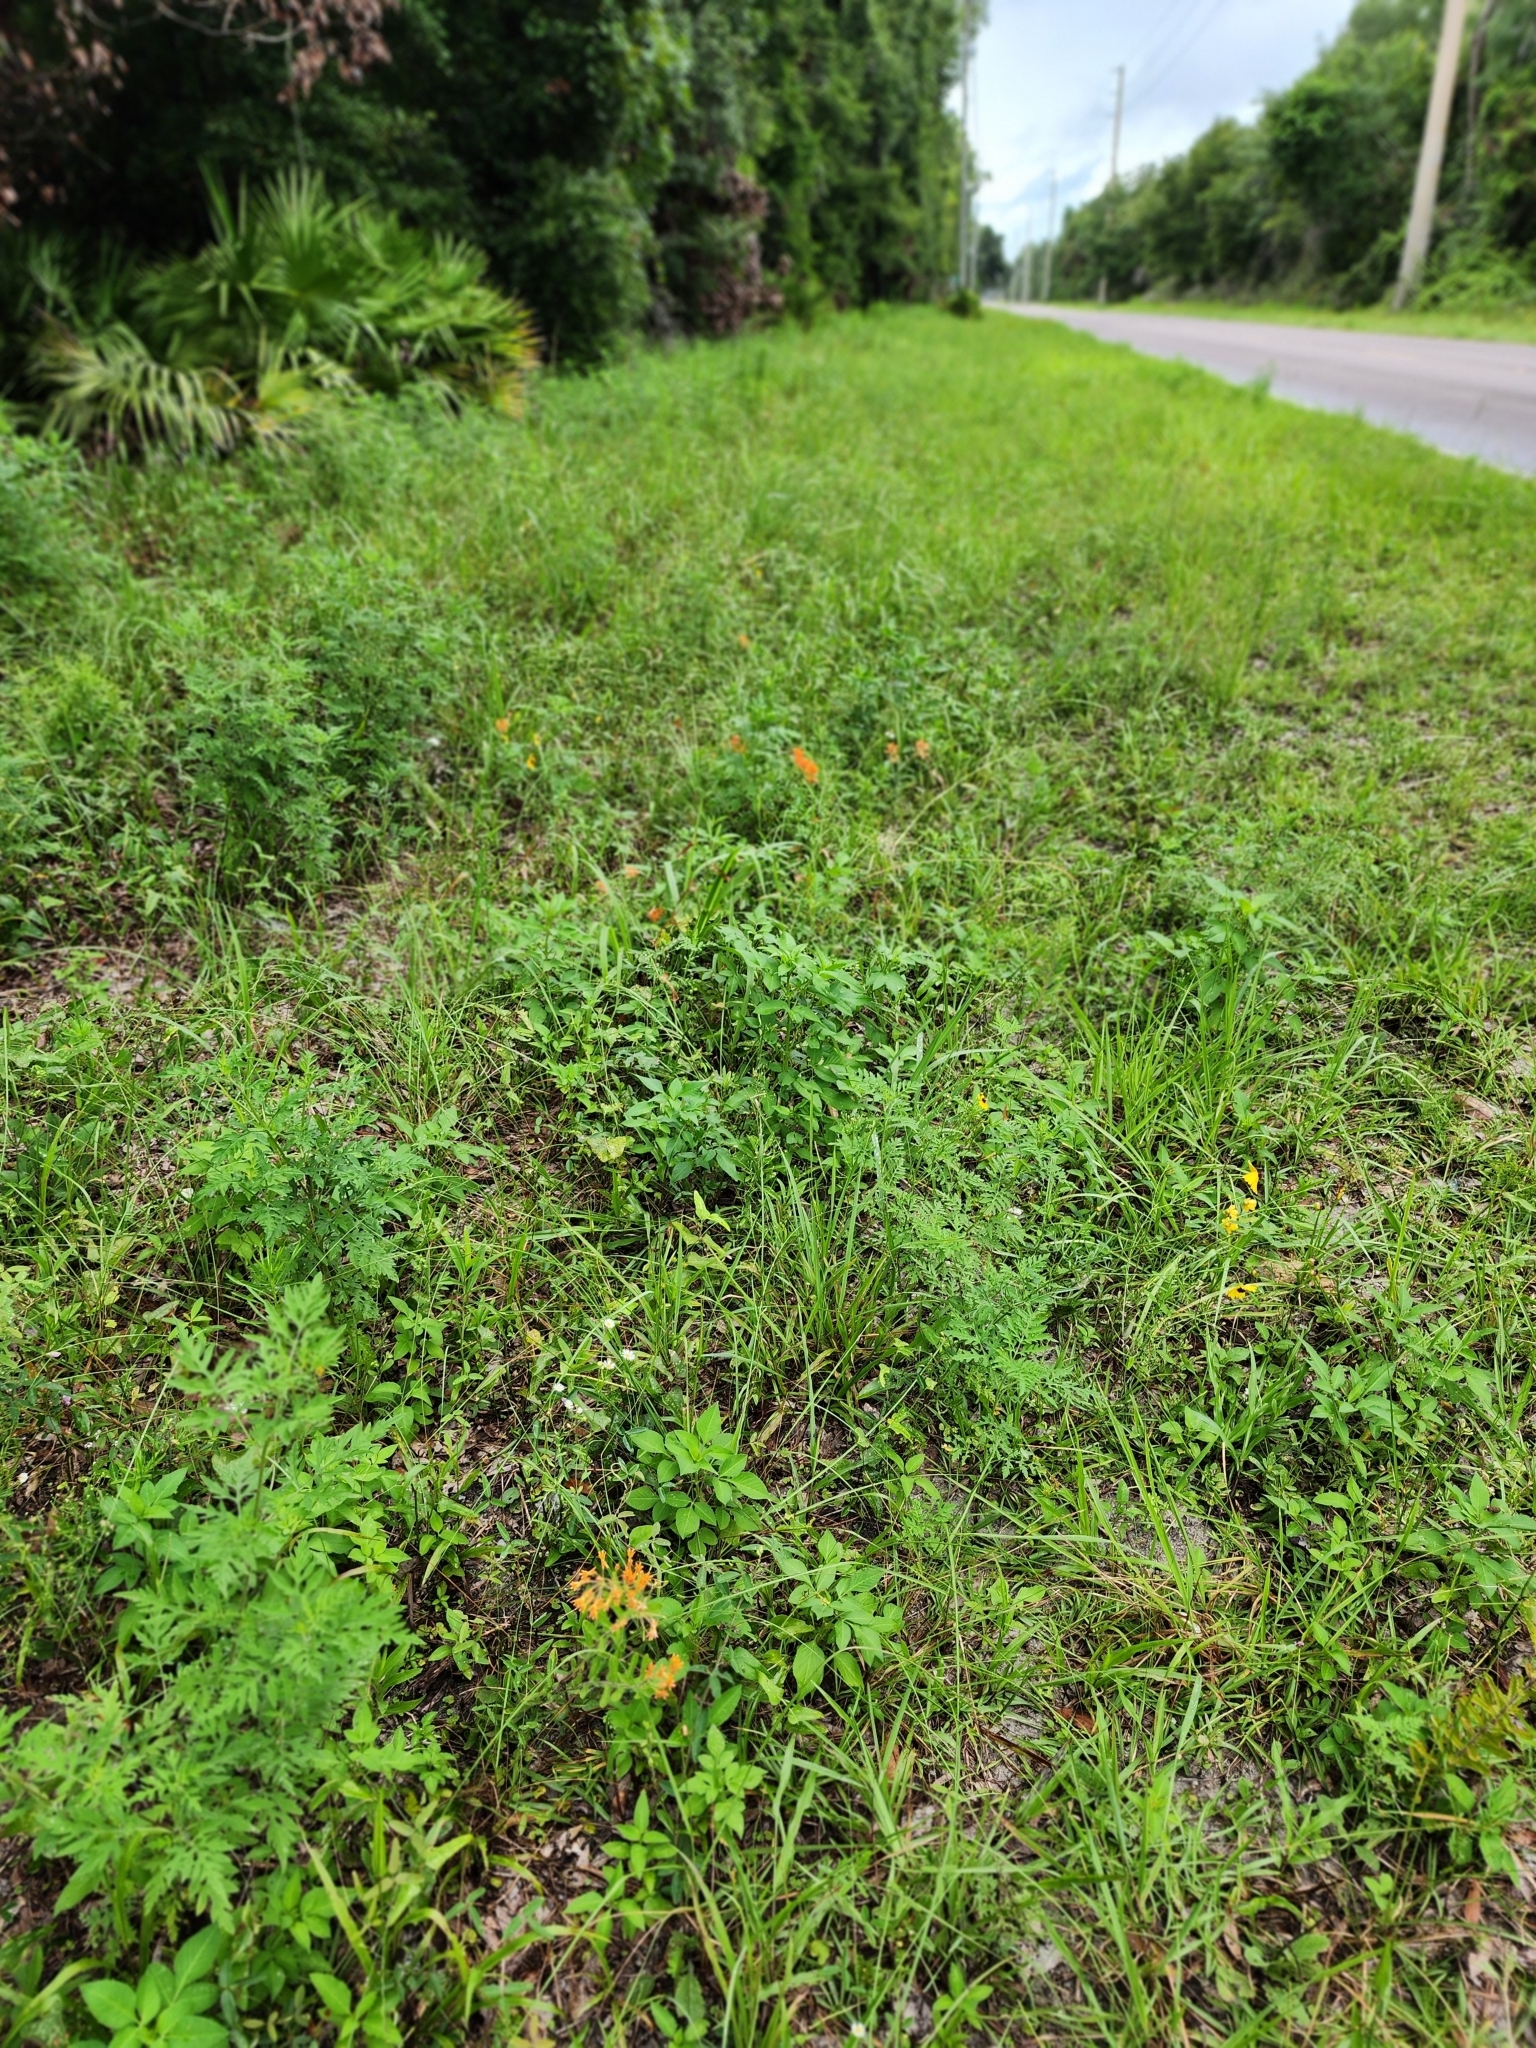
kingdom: Plantae
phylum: Tracheophyta
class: Magnoliopsida
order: Gentianales
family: Apocynaceae
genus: Asclepias
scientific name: Asclepias tuberosa
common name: Butterfly milkweed
